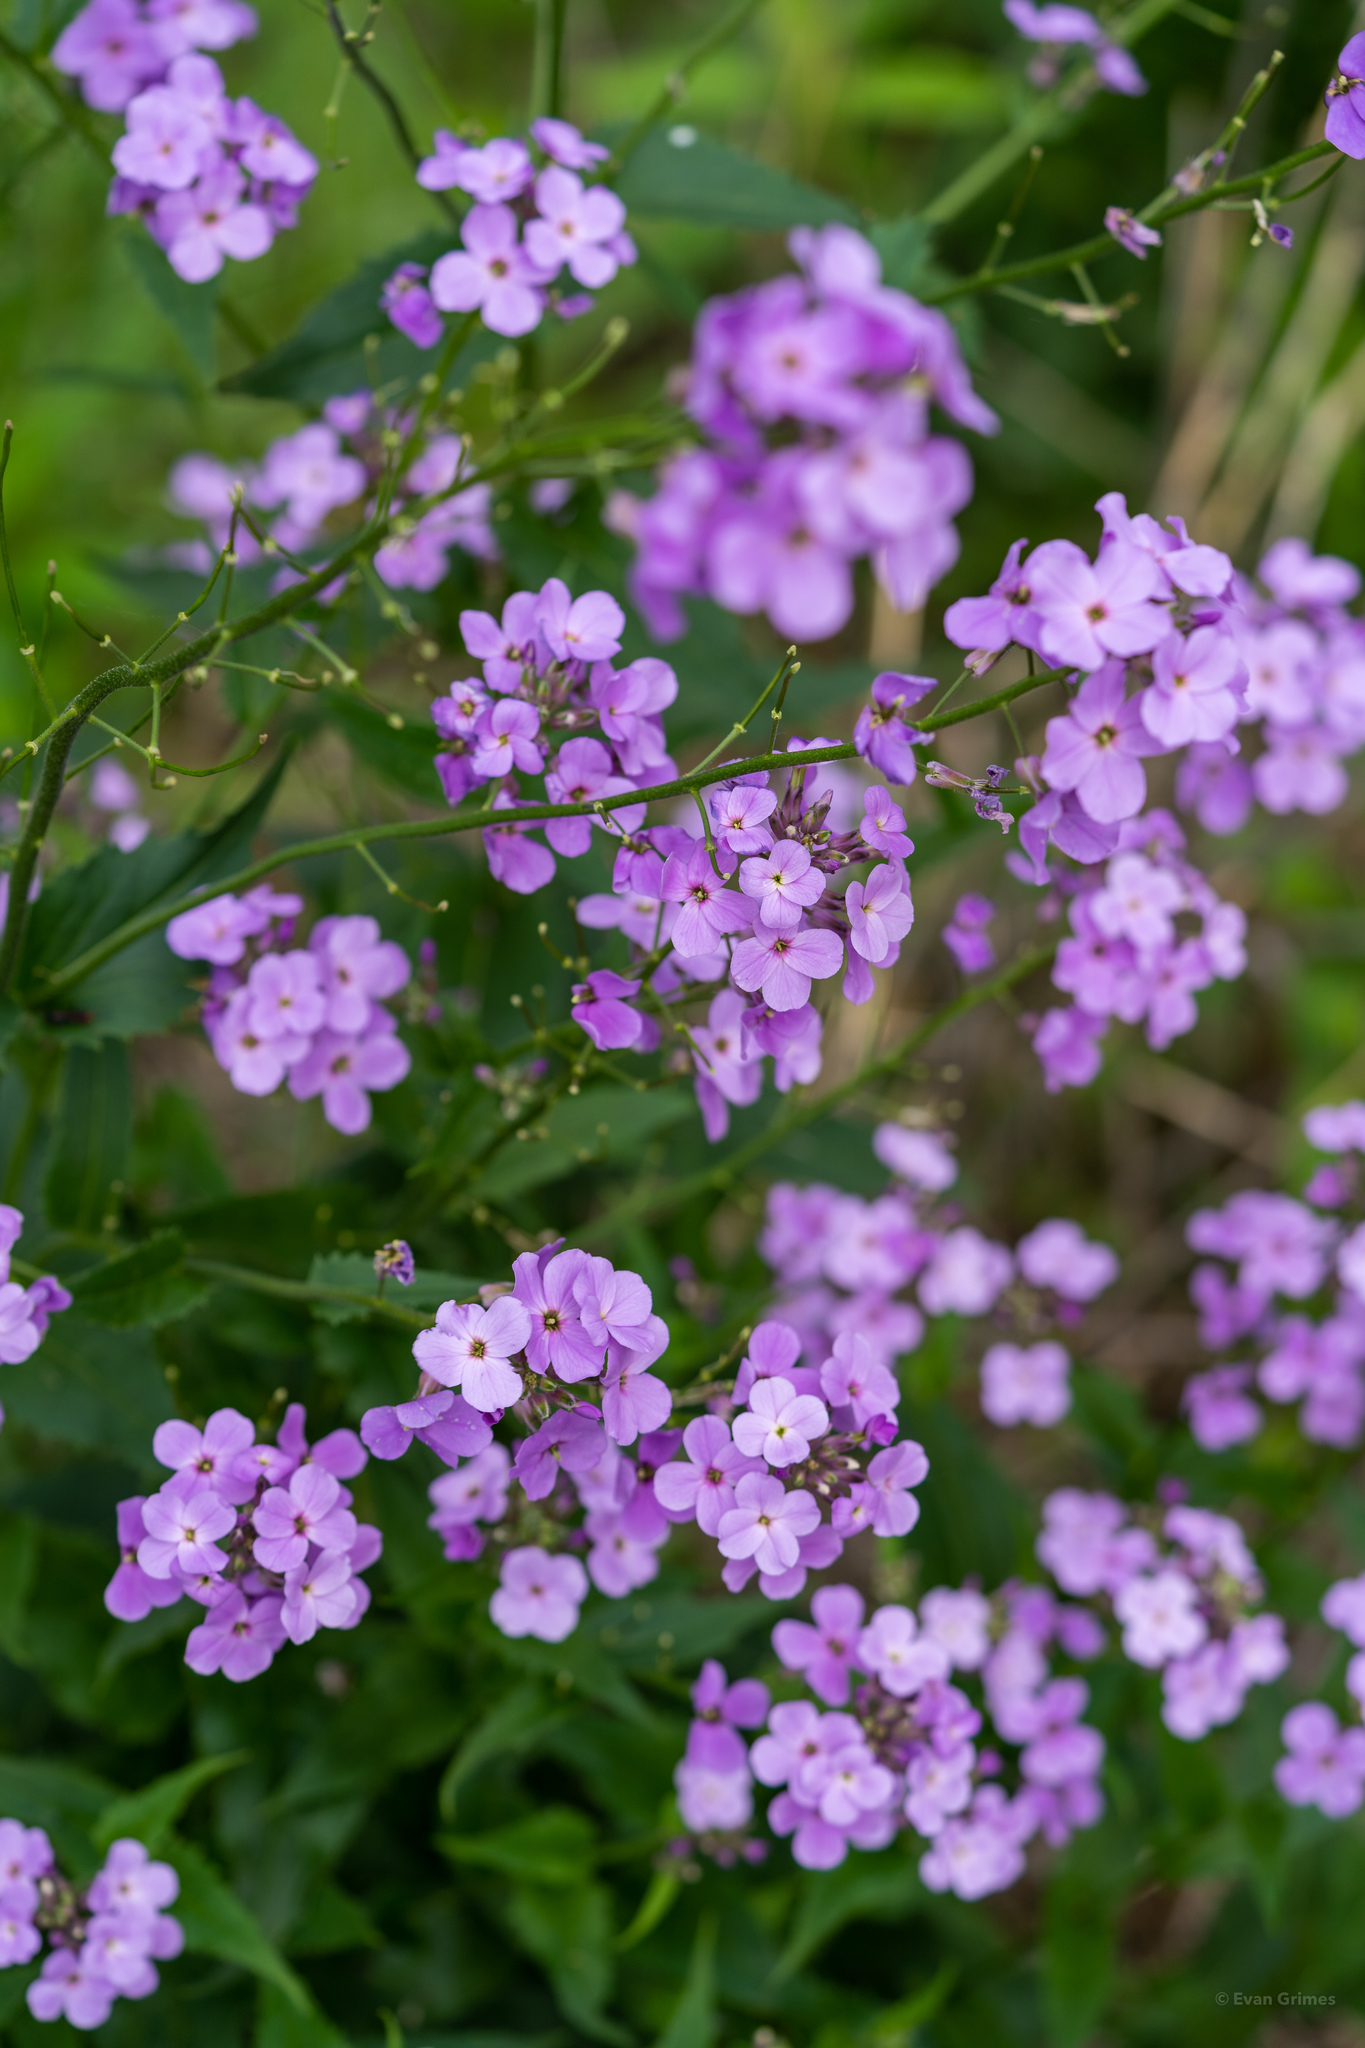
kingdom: Plantae
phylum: Tracheophyta
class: Magnoliopsida
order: Brassicales
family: Brassicaceae
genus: Hesperis
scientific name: Hesperis matronalis
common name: Dame's-violet
